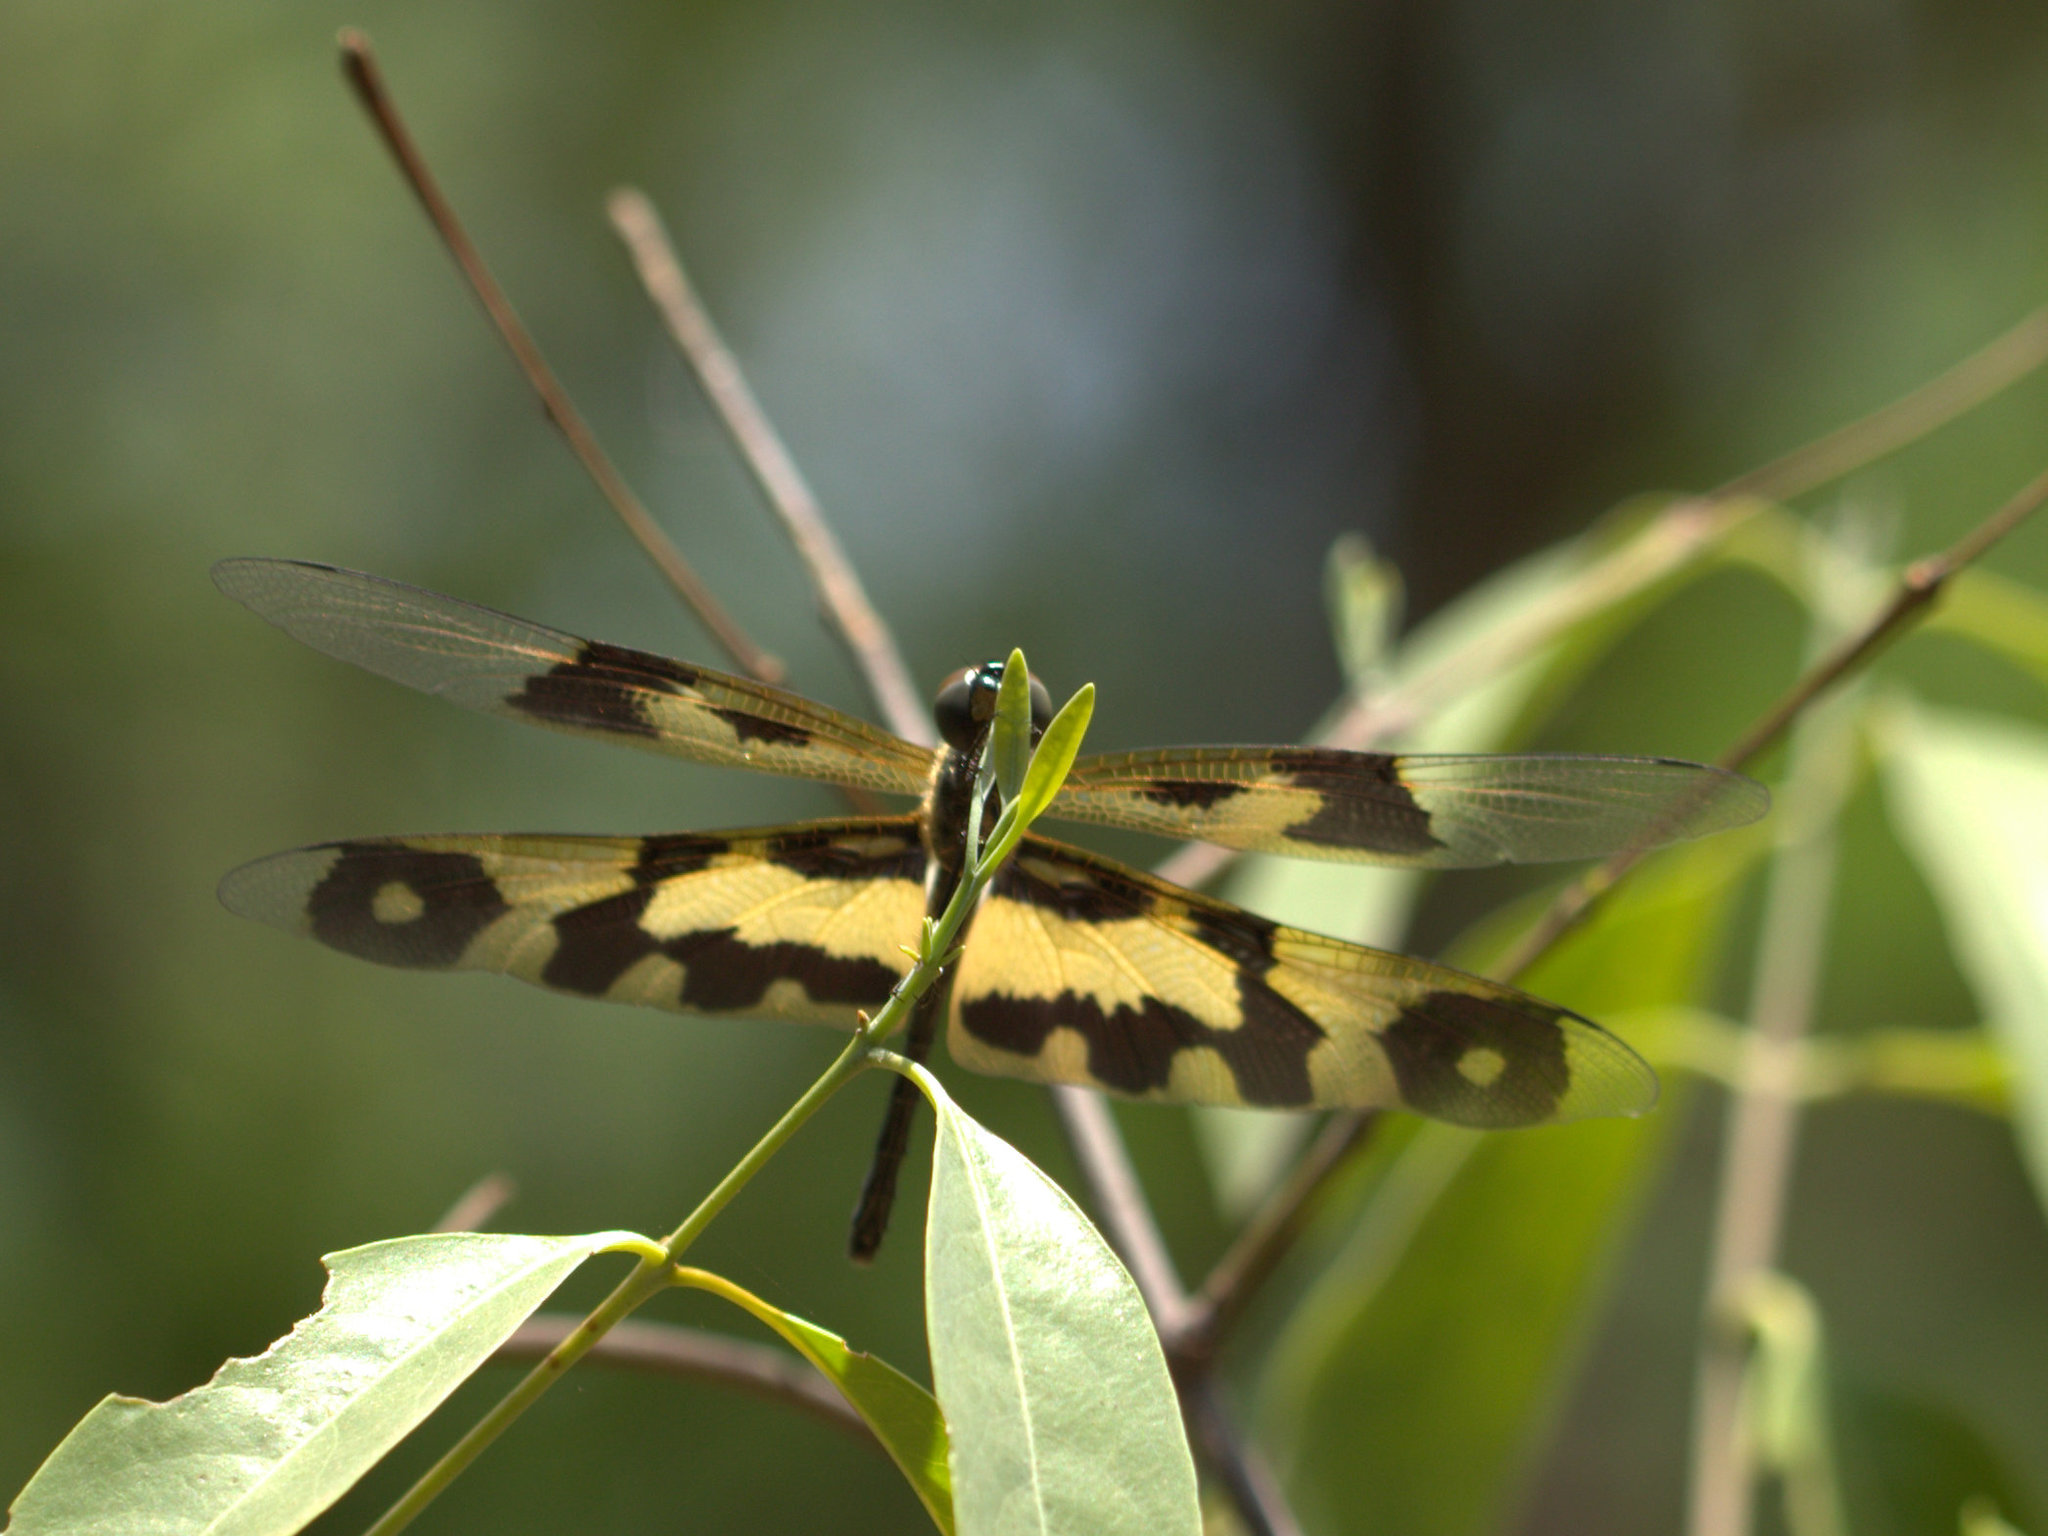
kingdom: Animalia
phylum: Arthropoda
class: Insecta
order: Odonata
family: Libellulidae
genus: Rhyothemis
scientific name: Rhyothemis variegata
